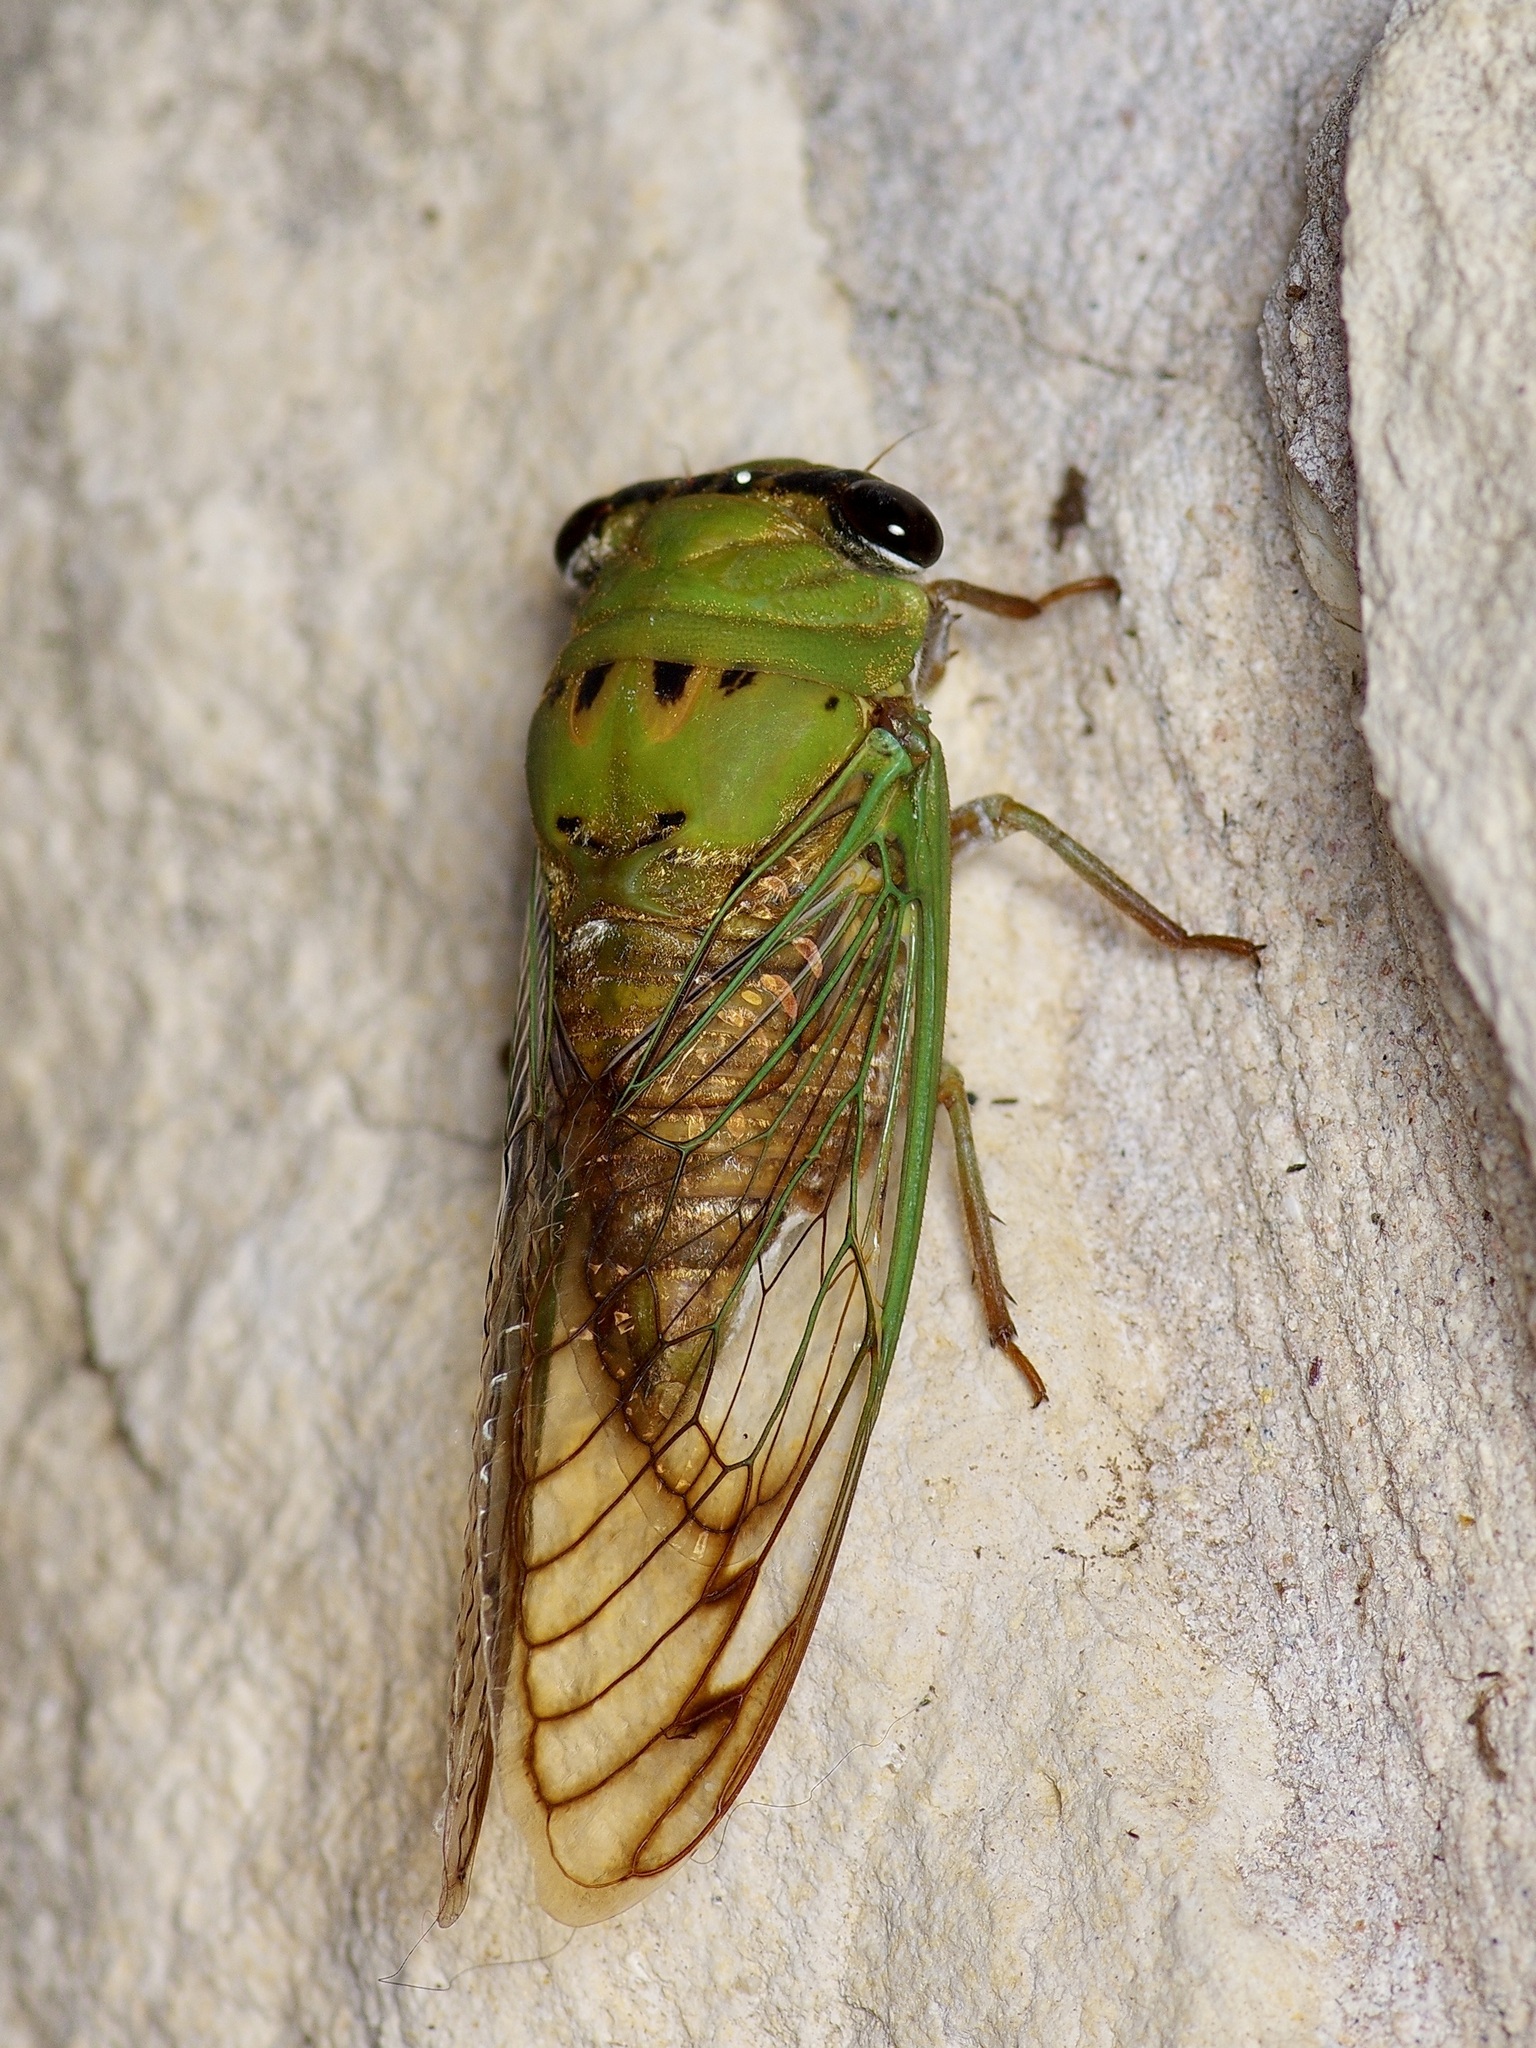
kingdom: Animalia
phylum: Arthropoda
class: Insecta
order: Hemiptera
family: Cicadidae
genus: Neotibicen
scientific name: Neotibicen superbus
